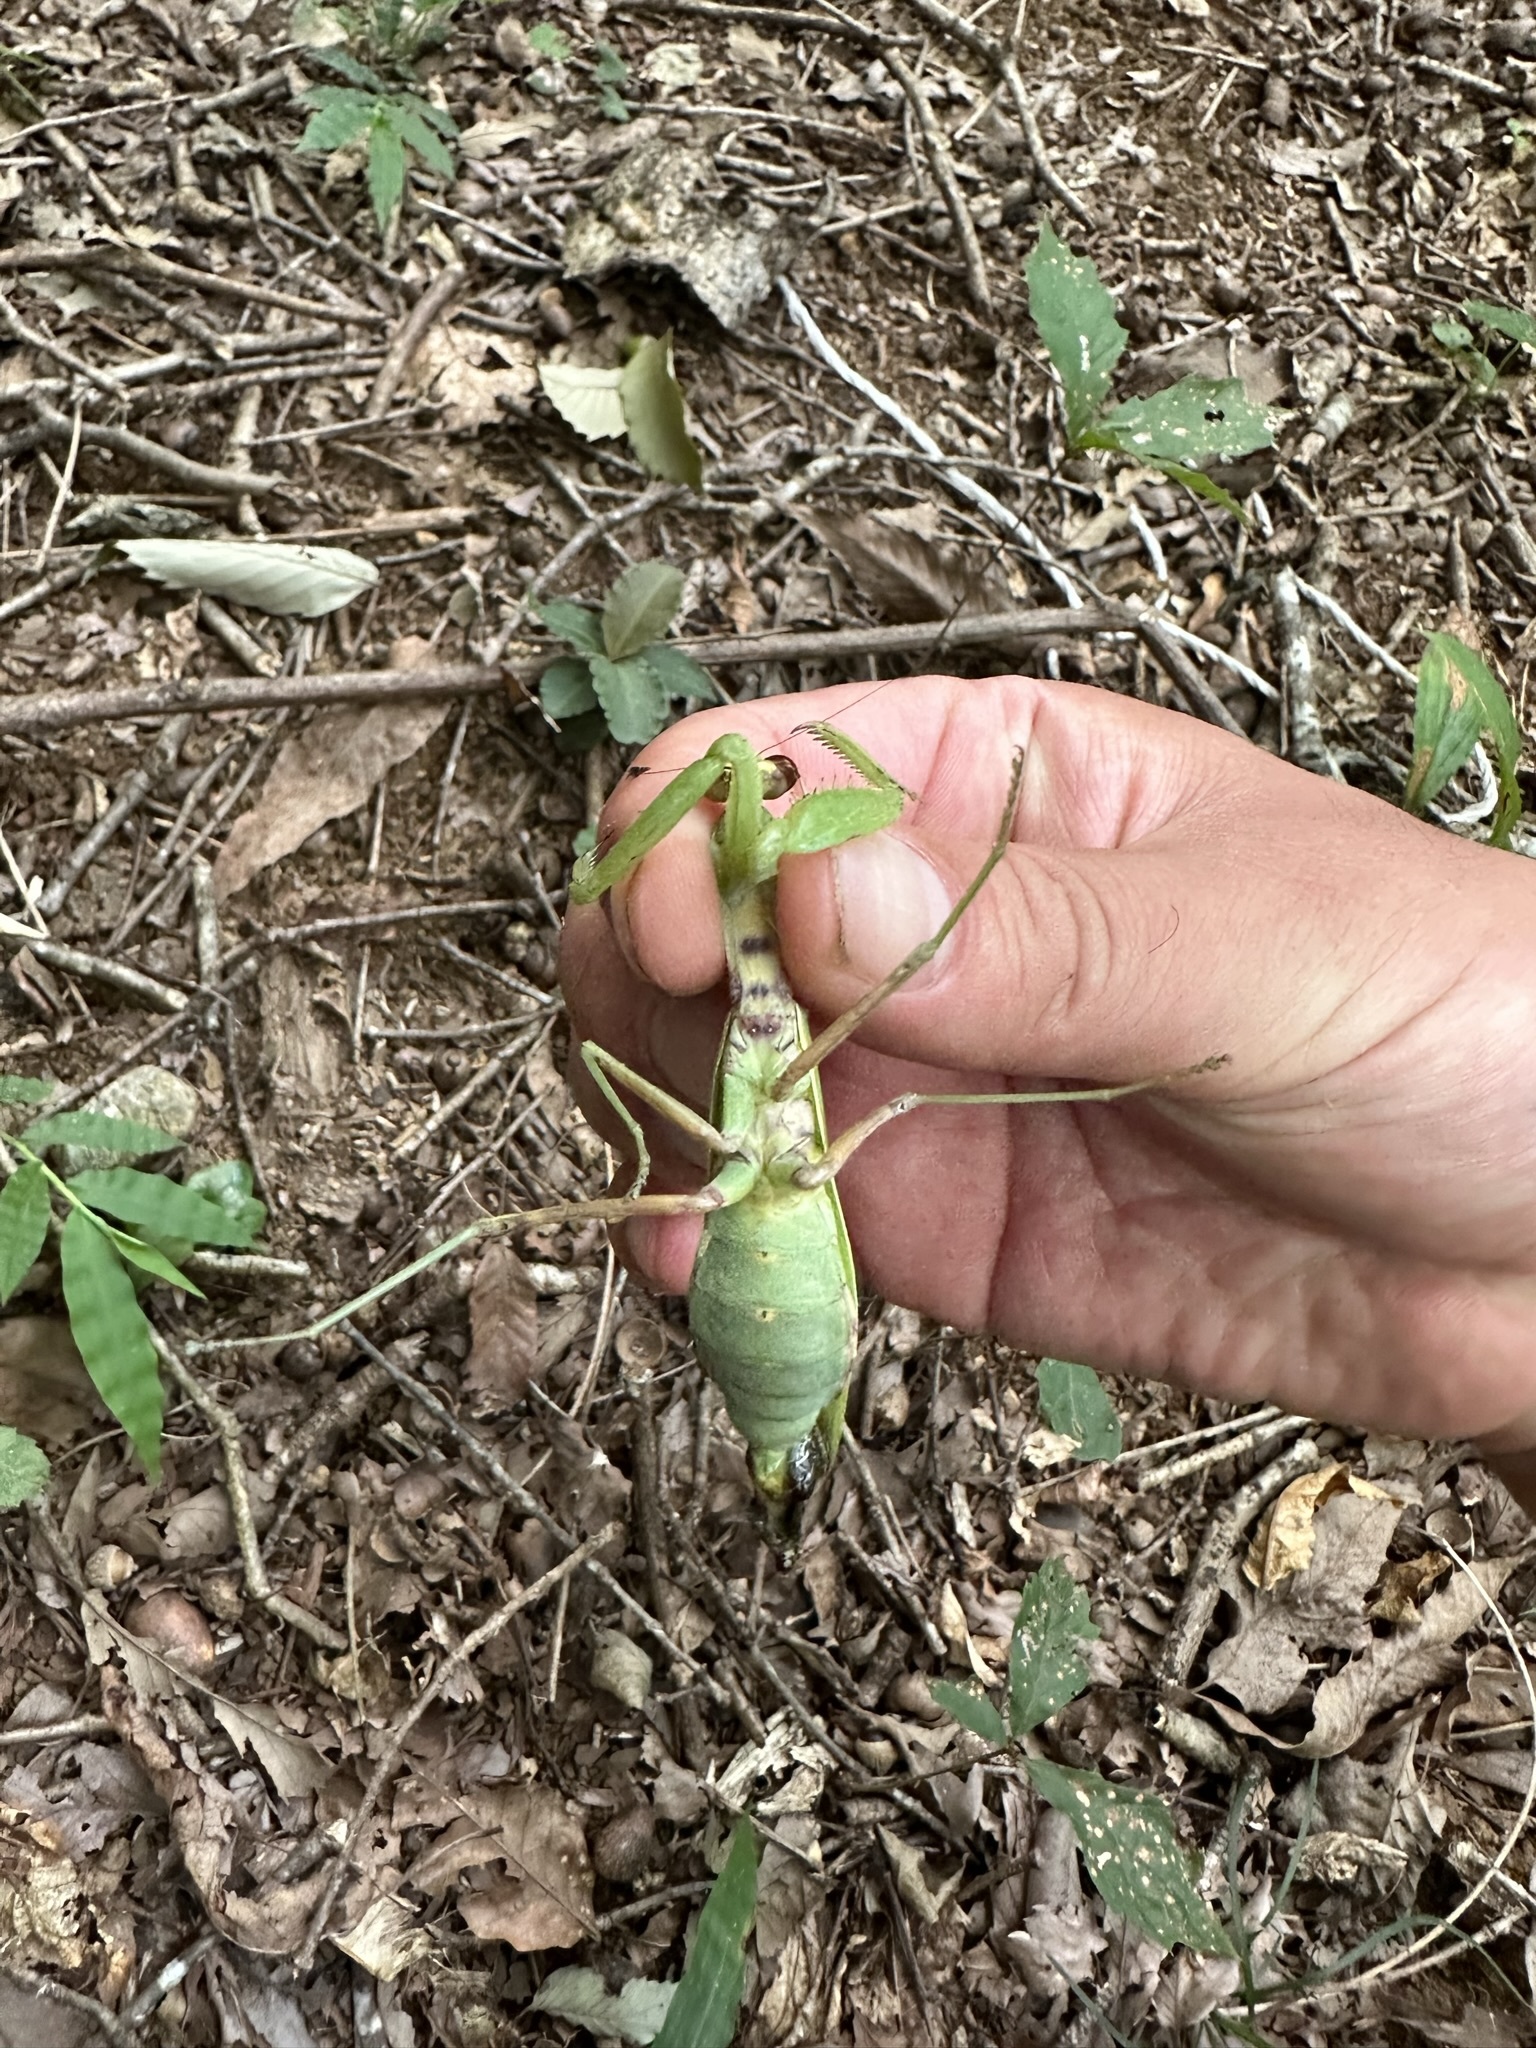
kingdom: Animalia
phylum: Arthropoda
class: Insecta
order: Mantodea
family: Mantidae
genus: Hierodula
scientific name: Hierodula patellifera
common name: Asian mantis
